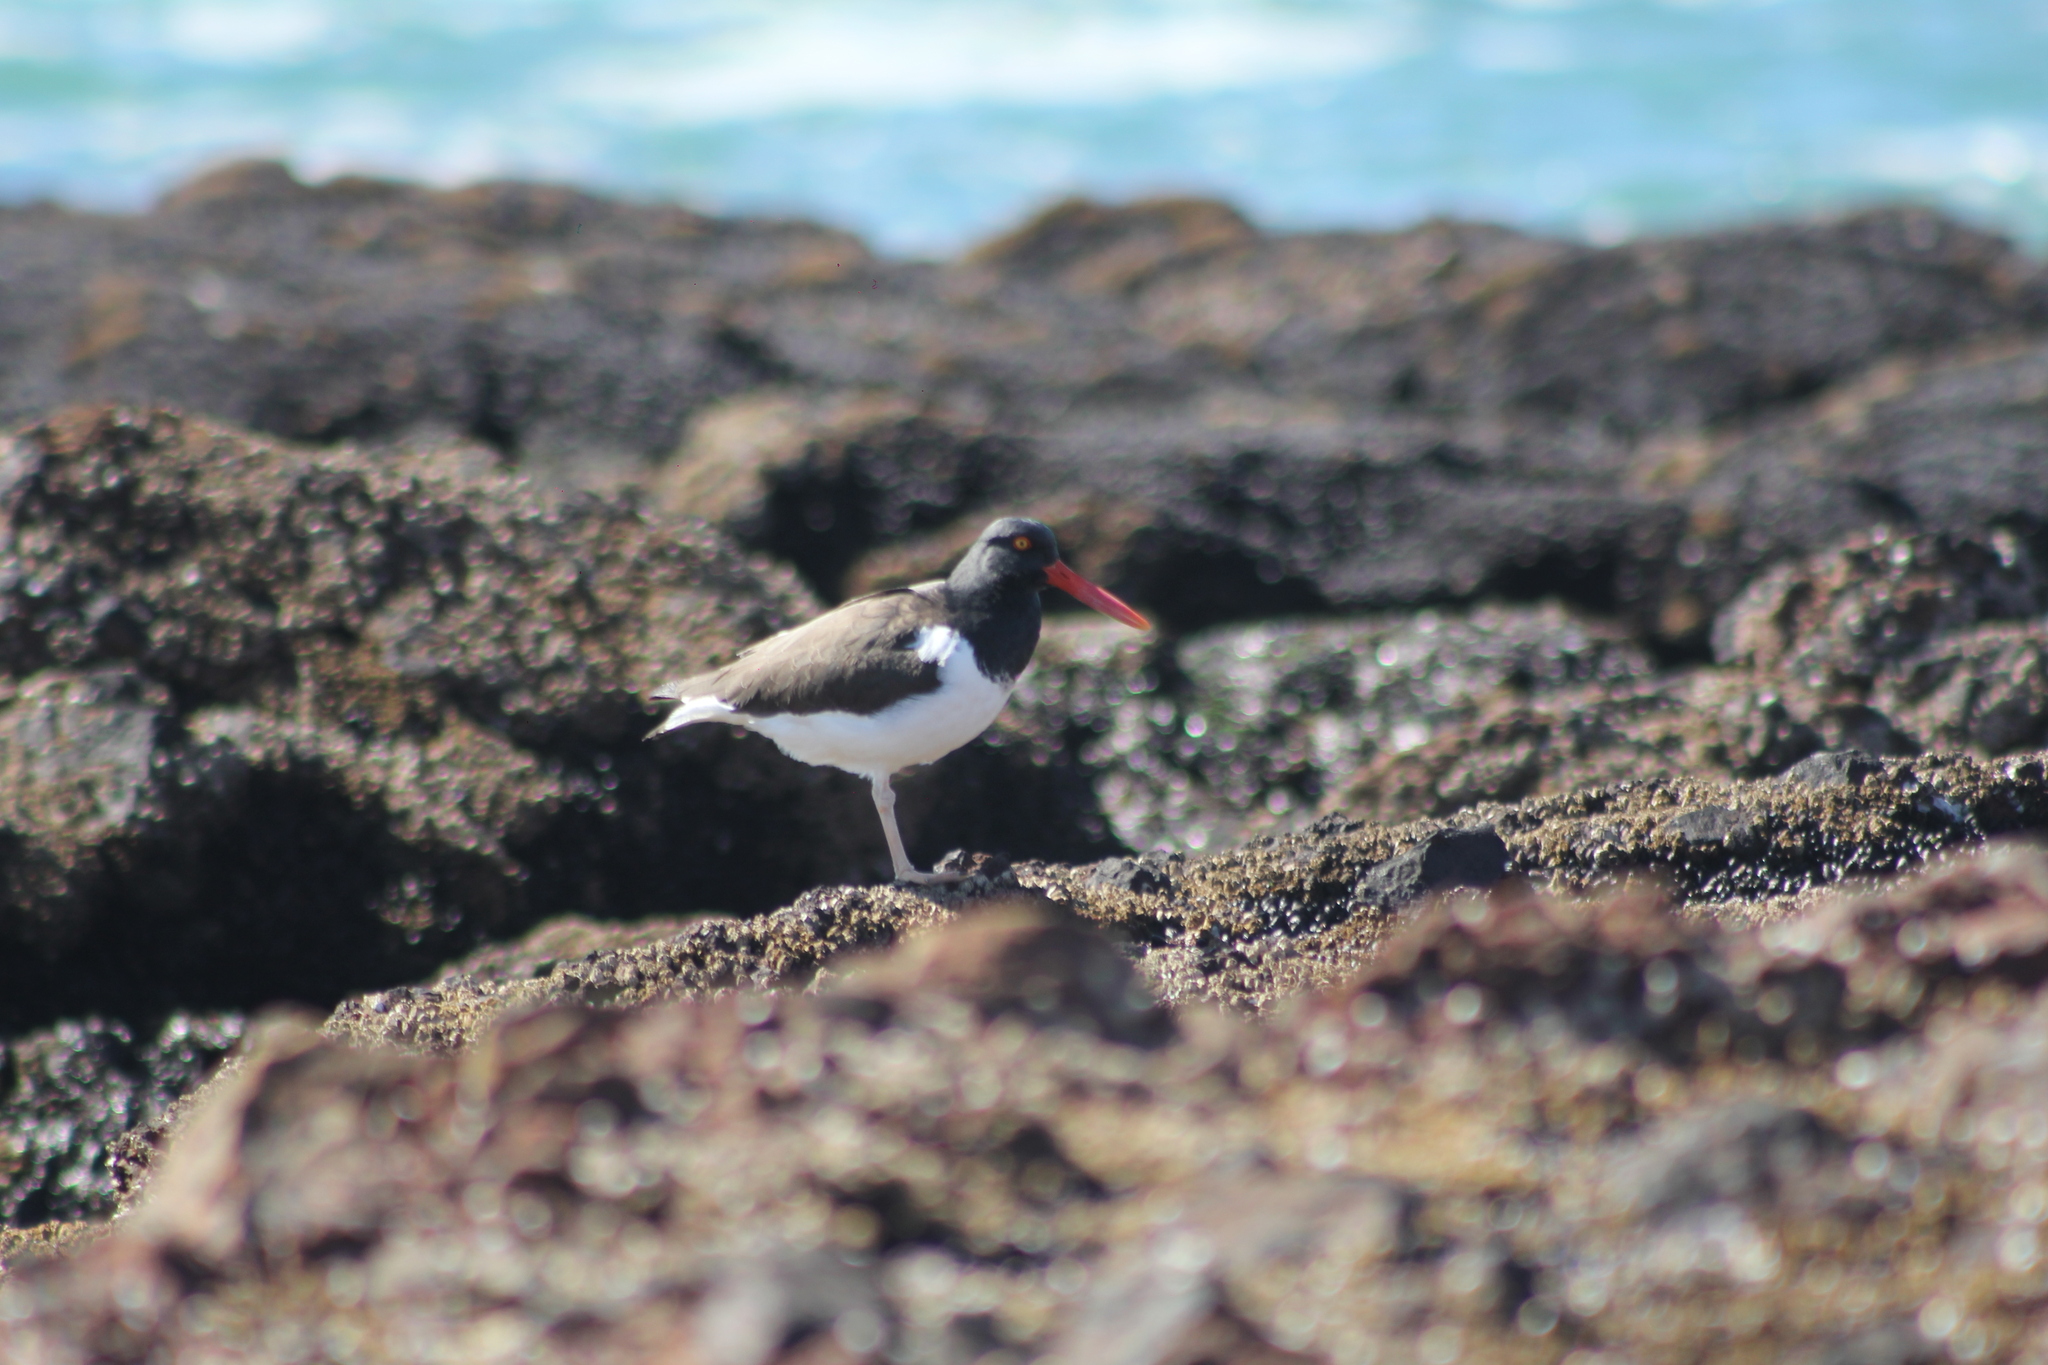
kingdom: Animalia
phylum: Chordata
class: Aves
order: Charadriiformes
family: Haematopodidae
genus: Haematopus
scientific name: Haematopus palliatus
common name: American oystercatcher
